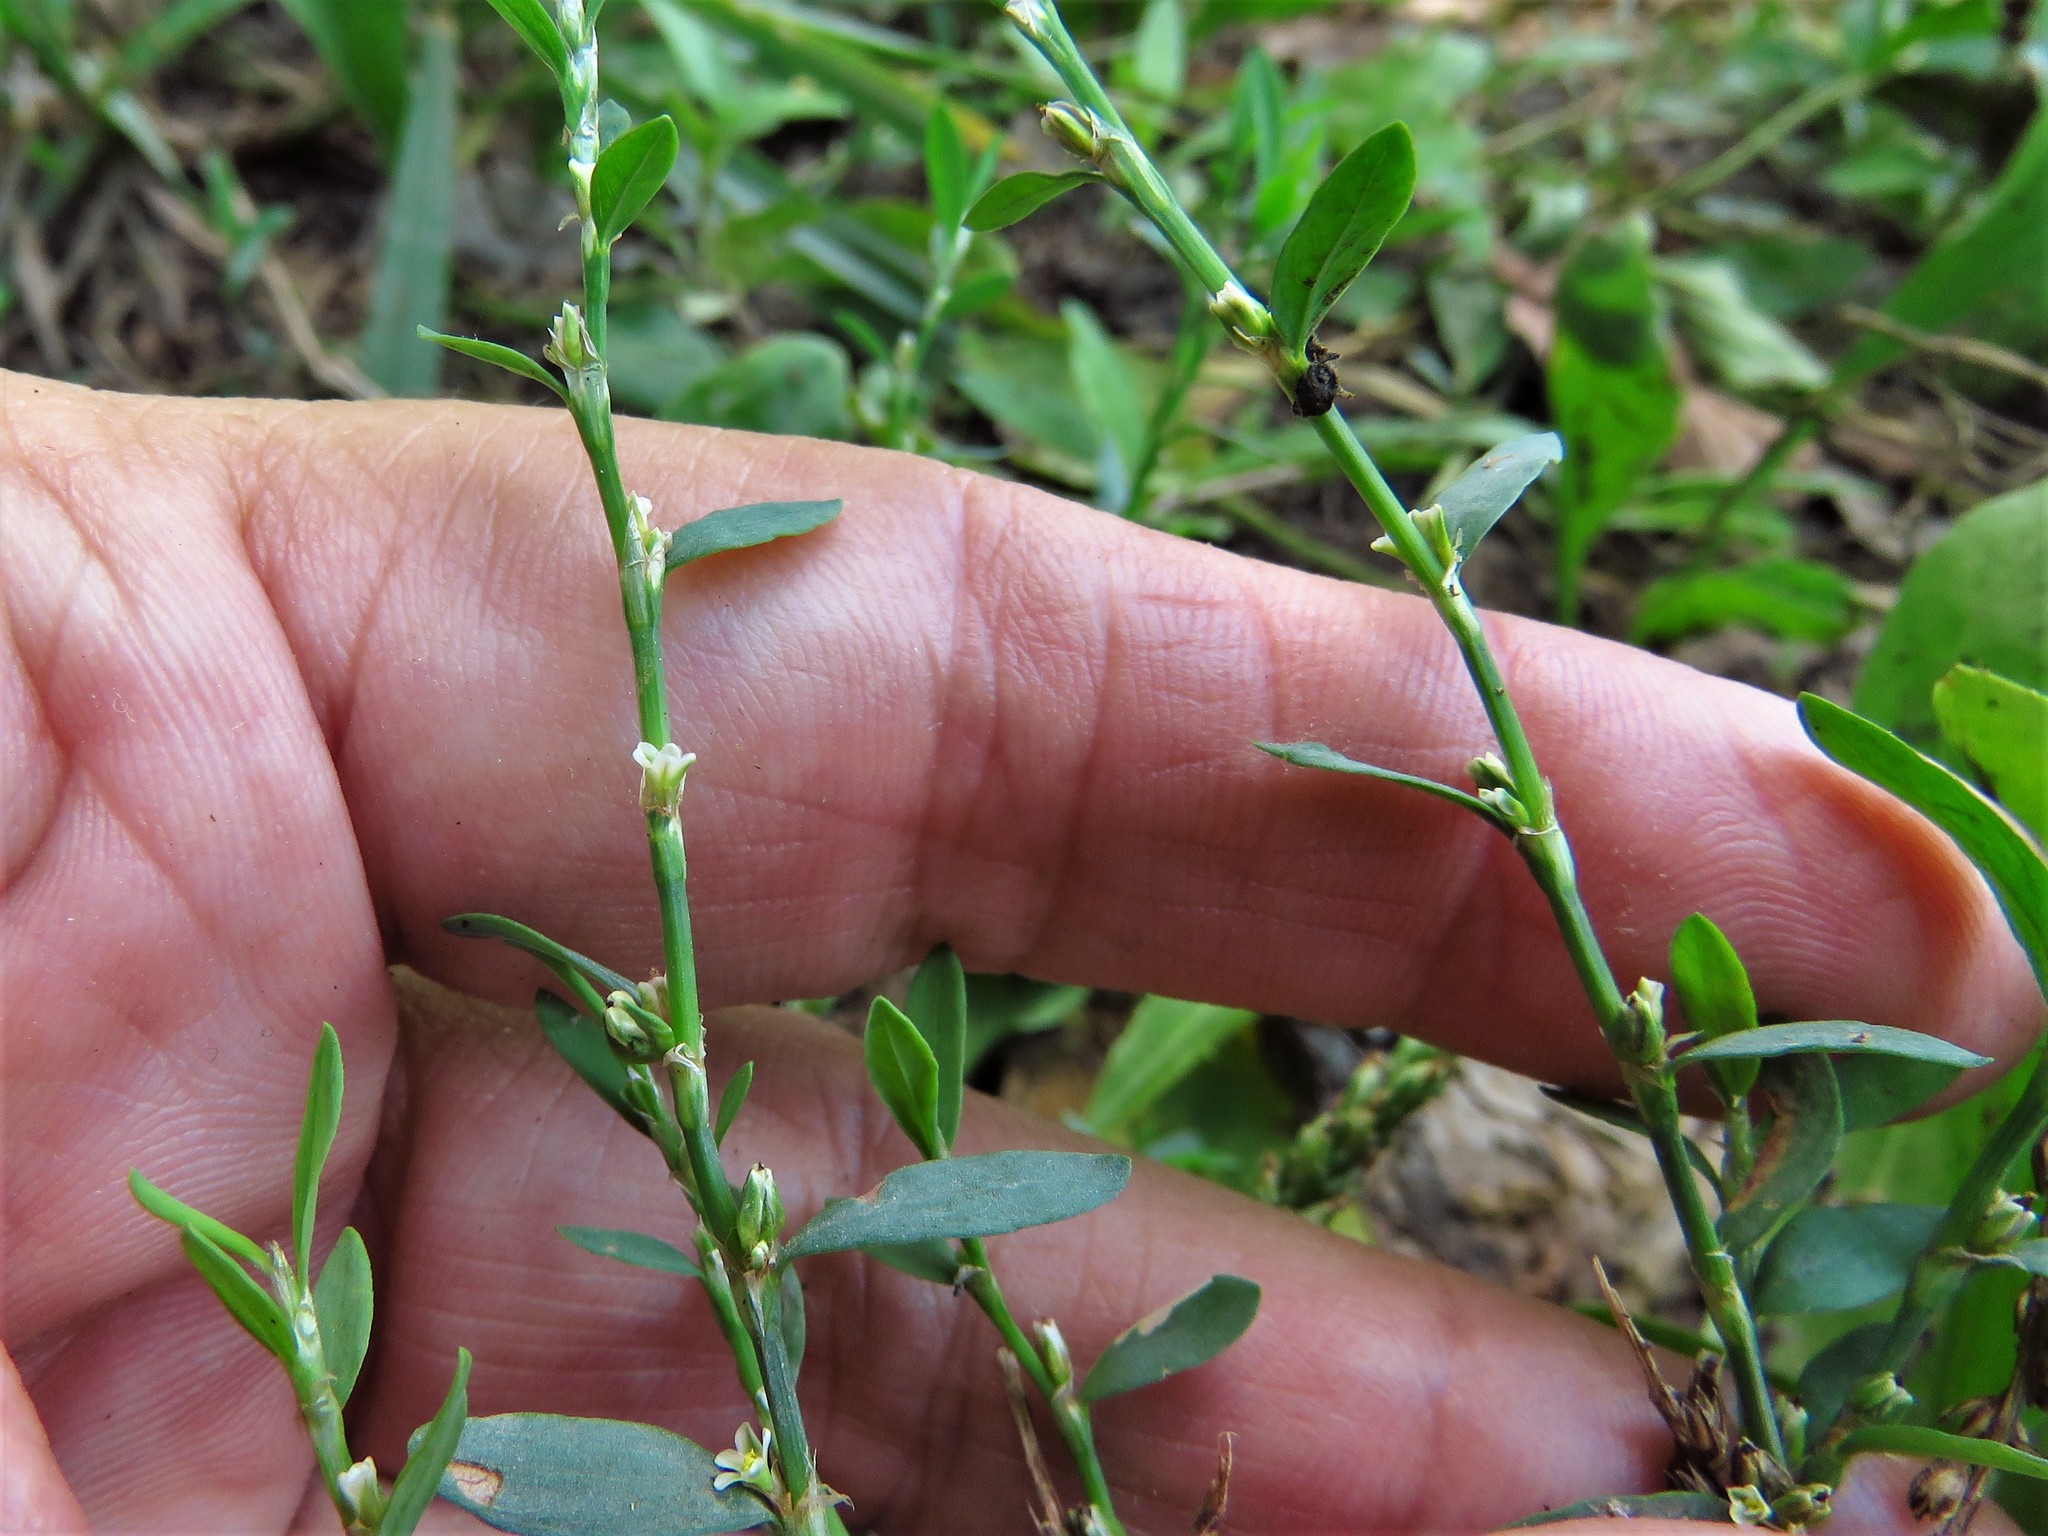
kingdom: Plantae
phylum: Tracheophyta
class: Magnoliopsida
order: Caryophyllales
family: Polygonaceae
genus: Polygonum
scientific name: Polygonum aviculare
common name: Prostrate knotweed
